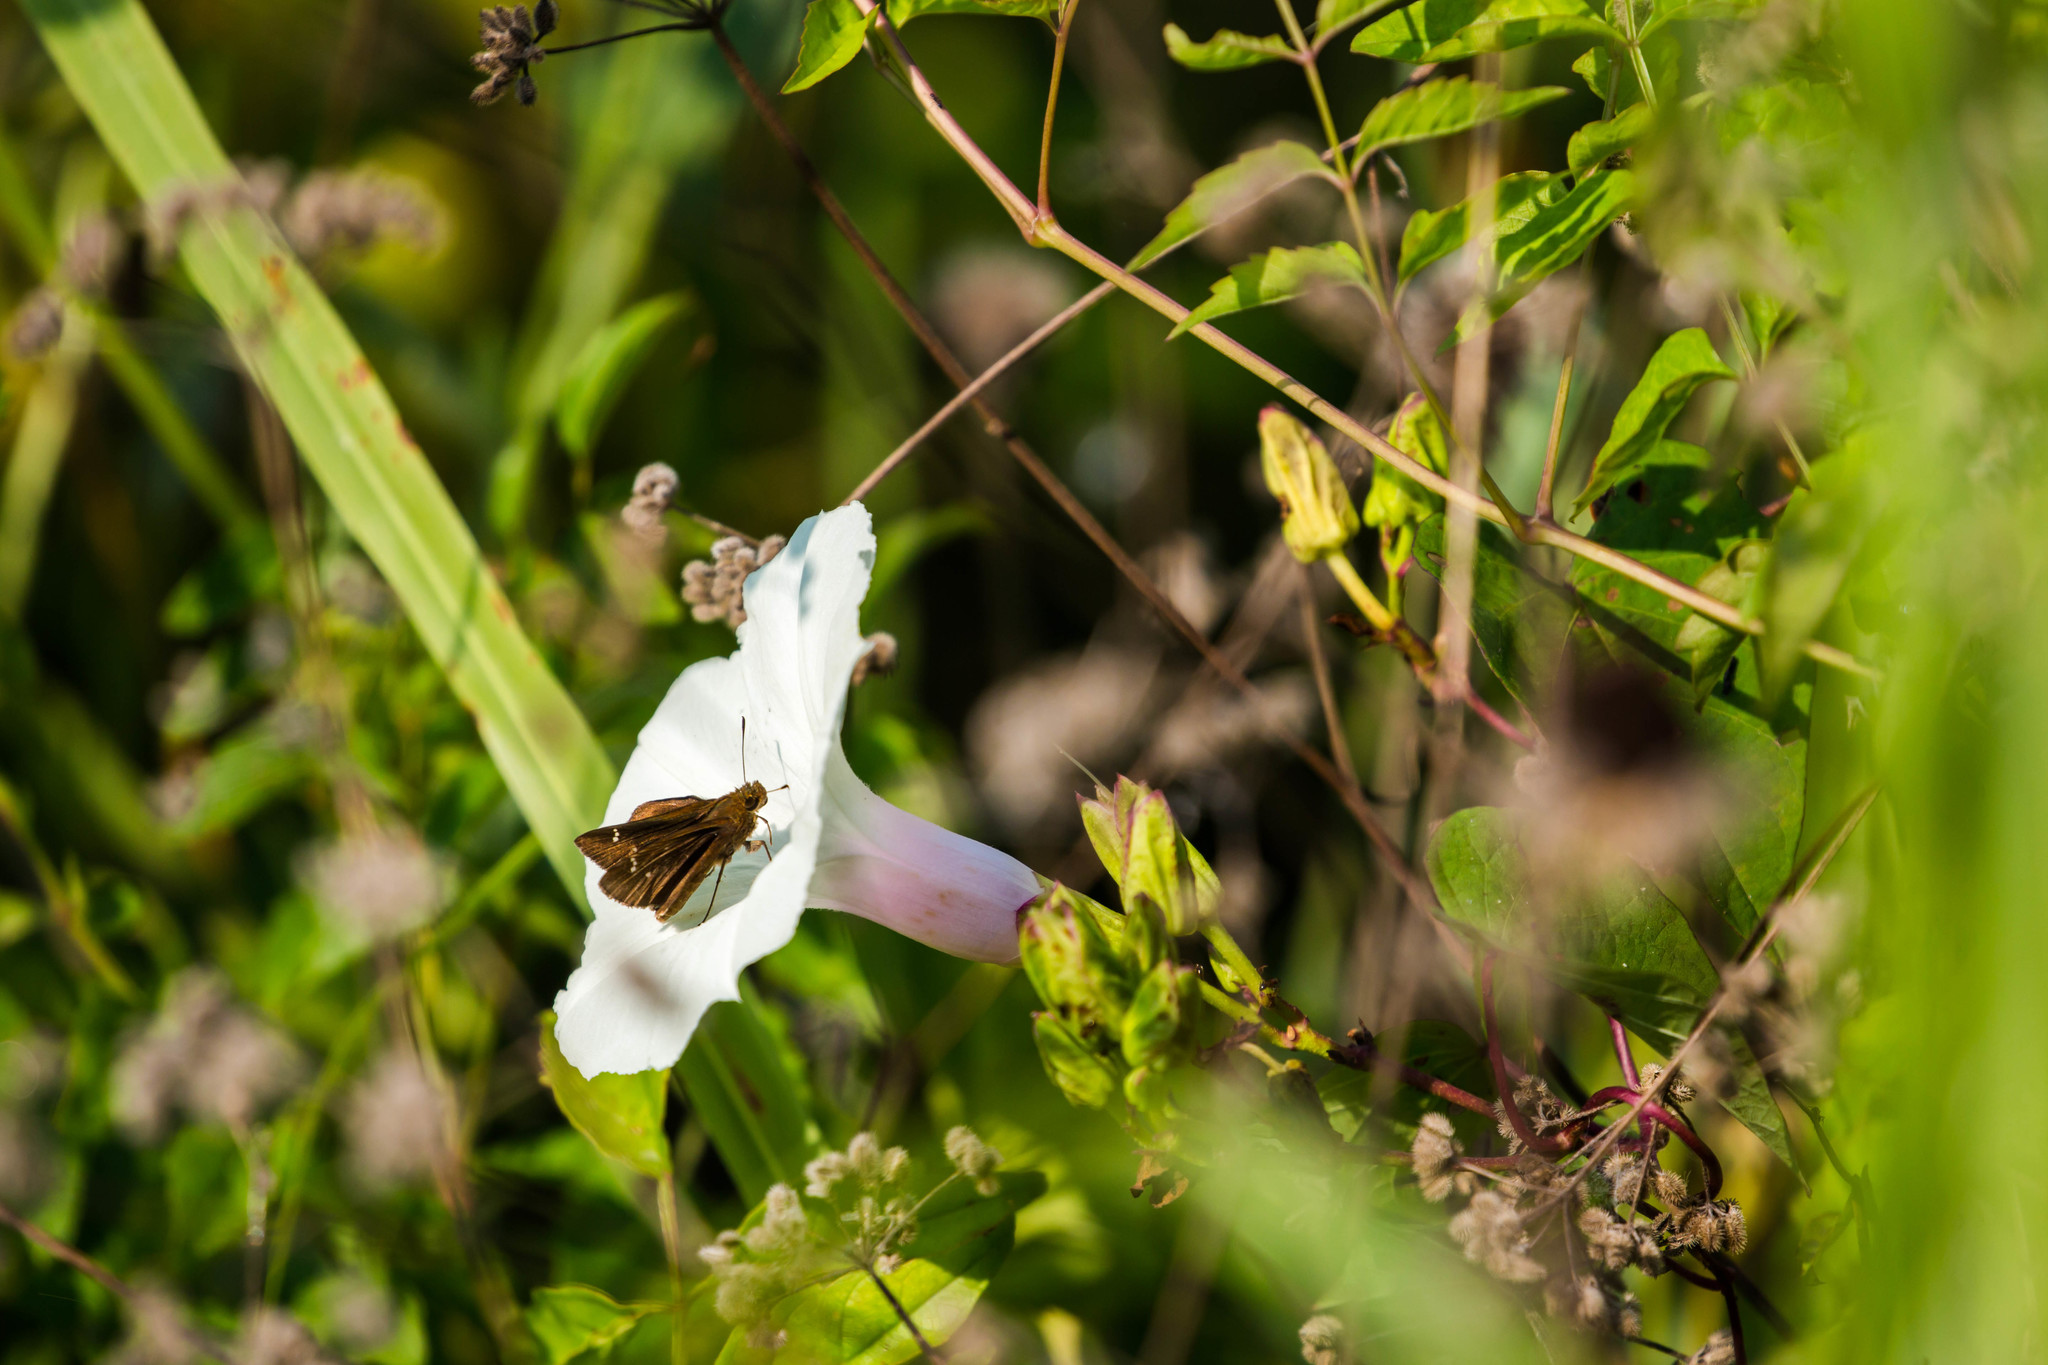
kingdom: Animalia
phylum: Arthropoda
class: Insecta
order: Lepidoptera
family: Hesperiidae
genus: Lerema
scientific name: Lerema accius
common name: Clouded skipper
